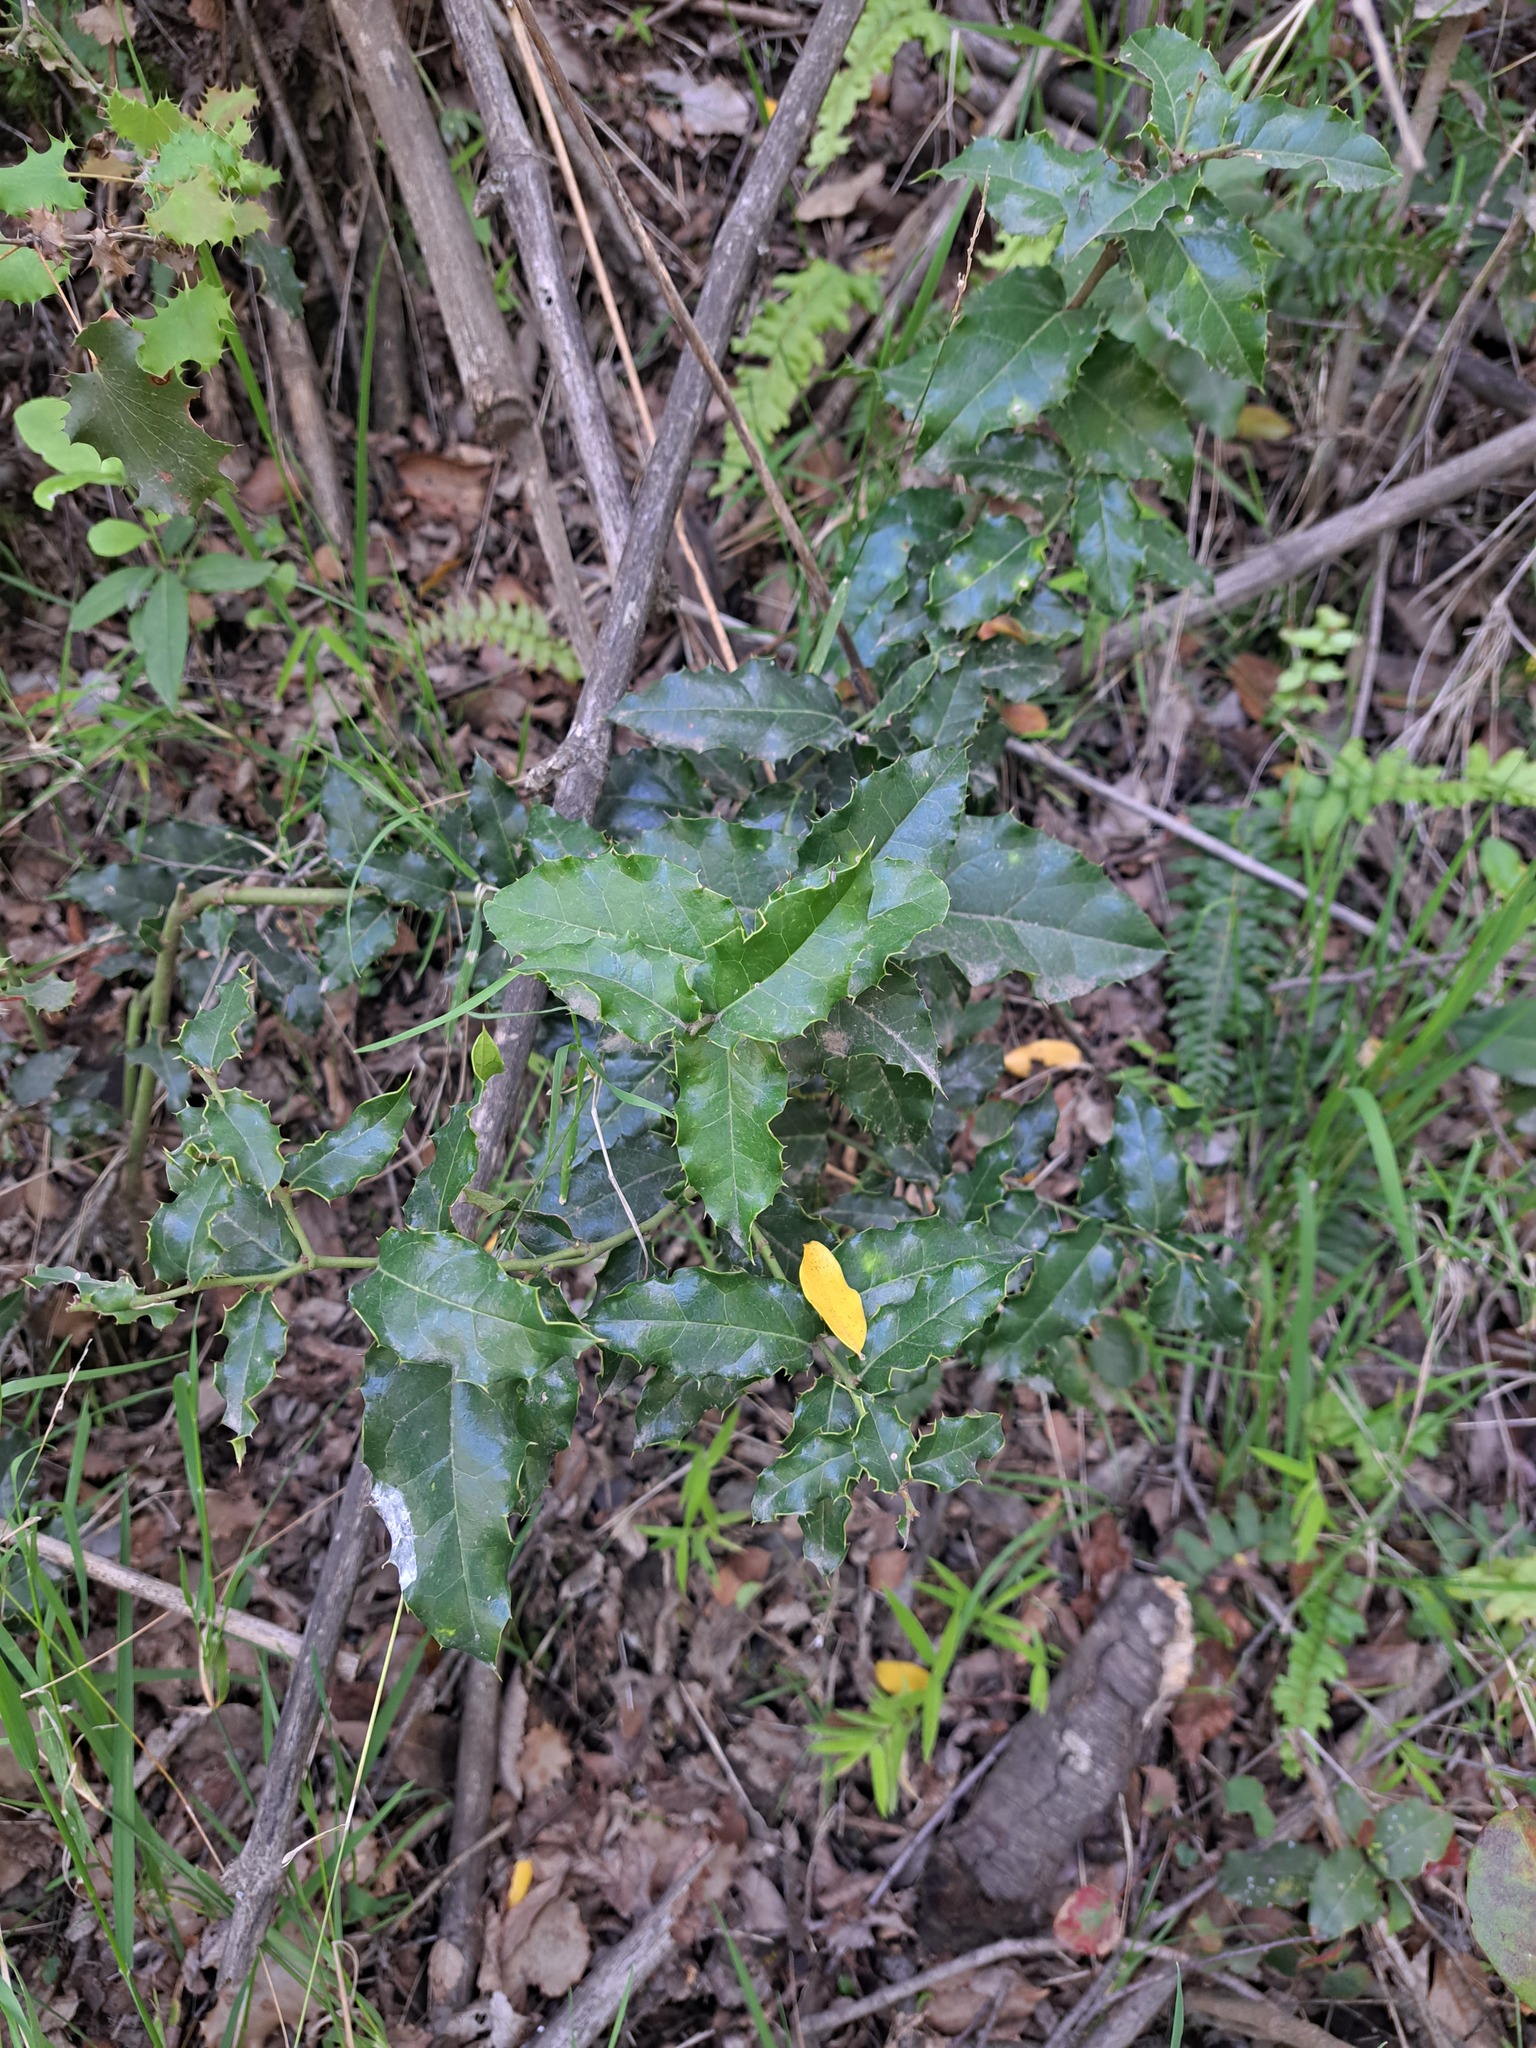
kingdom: Plantae
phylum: Tracheophyta
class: Magnoliopsida
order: Cardiopteridales
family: Cardiopteridaceae
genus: Citronella
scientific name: Citronella mucronata
